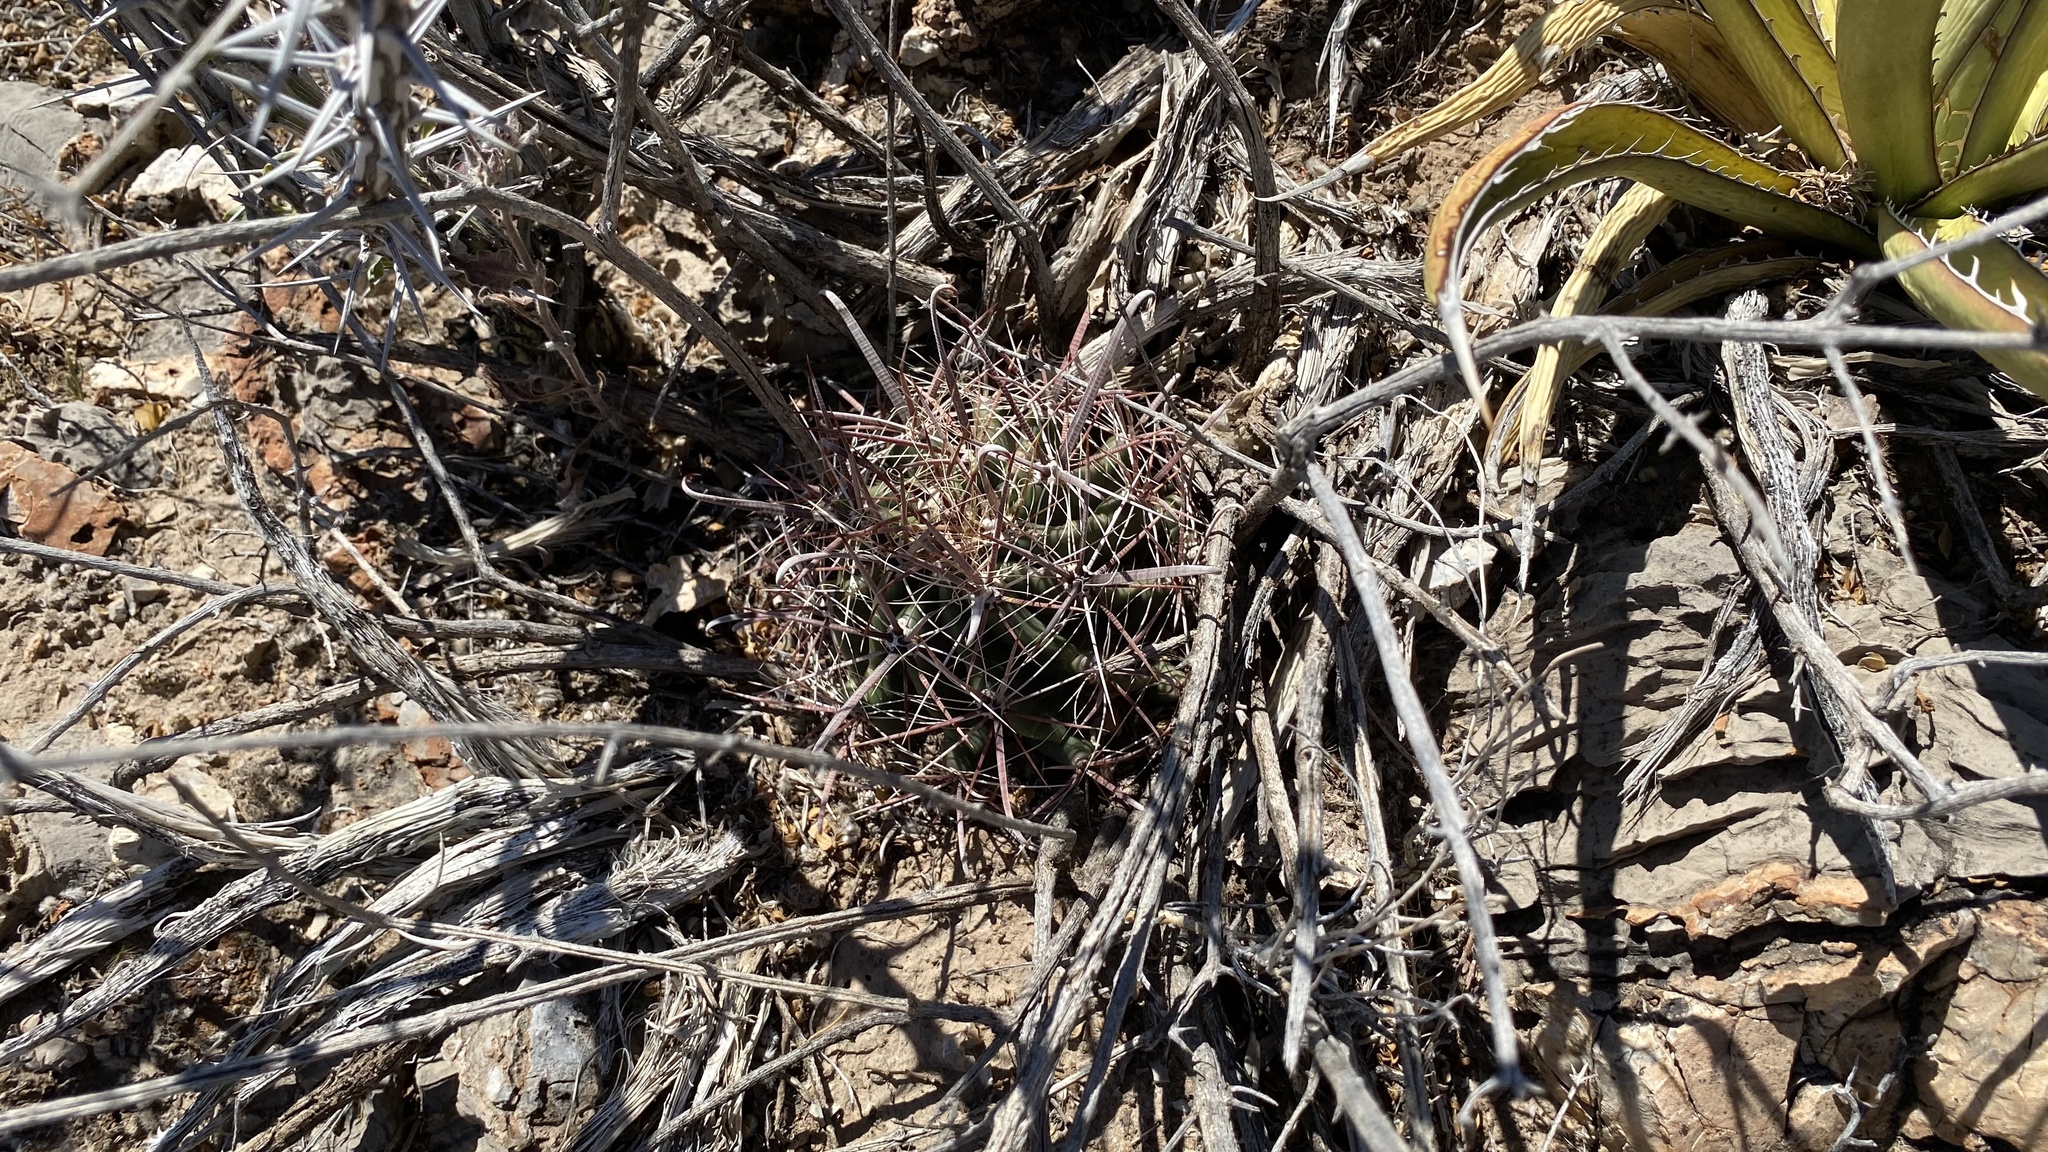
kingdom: Plantae
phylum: Tracheophyta
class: Magnoliopsida
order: Caryophyllales
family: Cactaceae
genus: Ferocactus
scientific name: Ferocactus wislizeni
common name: Candy barrel cactus
